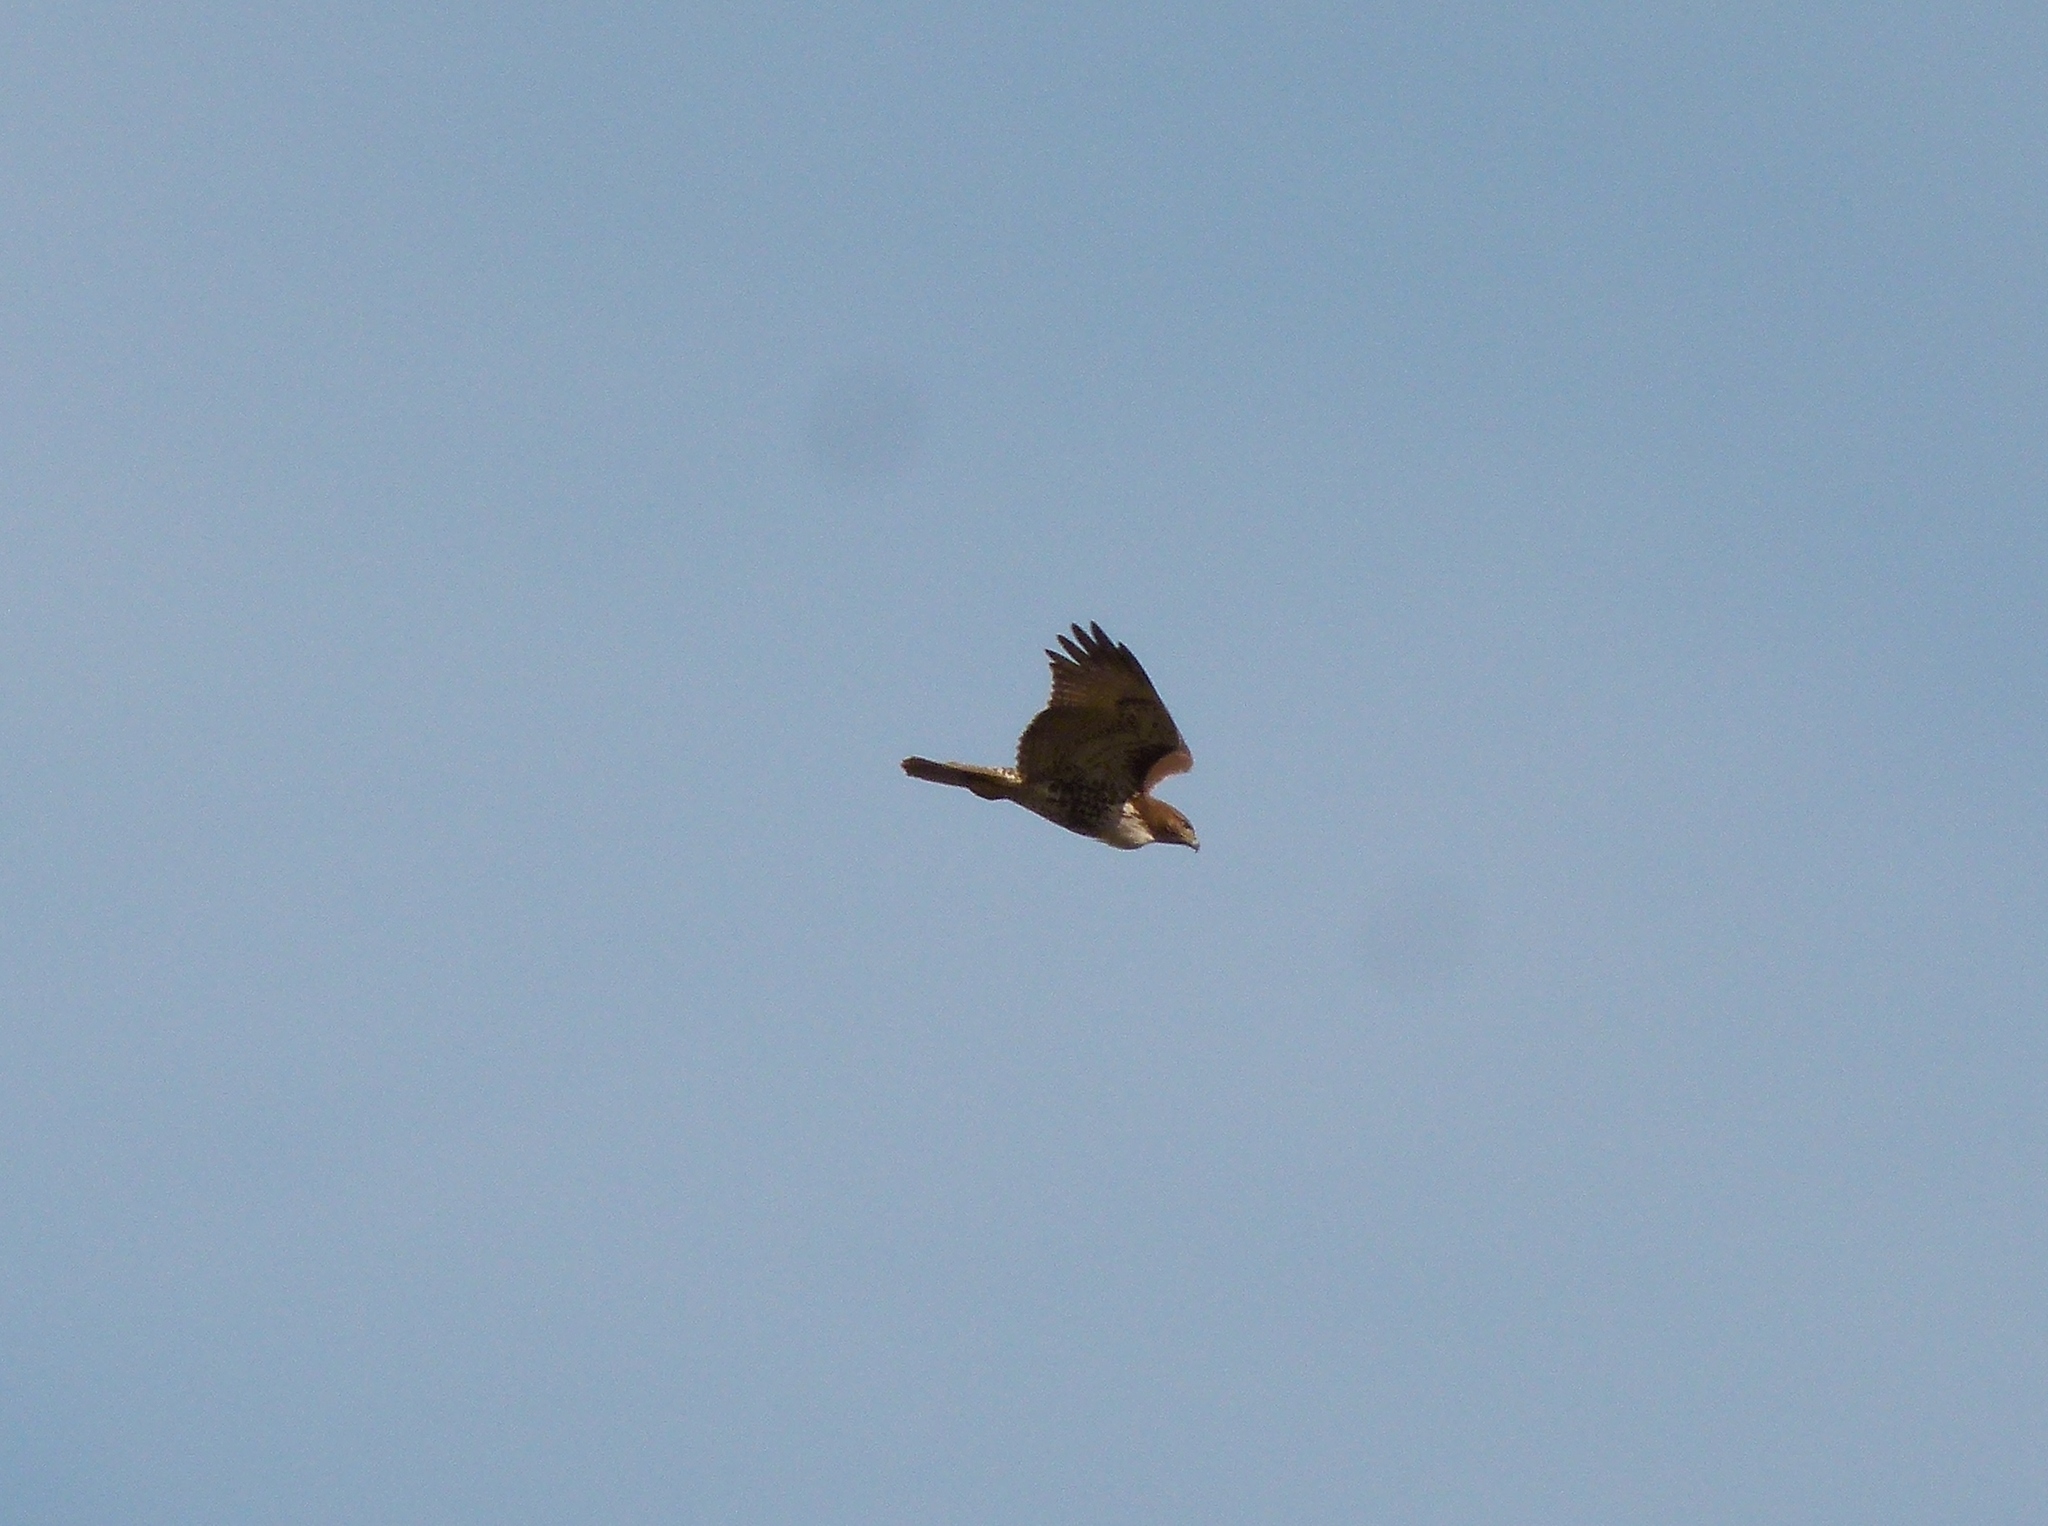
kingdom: Animalia
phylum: Chordata
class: Aves
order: Accipitriformes
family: Accipitridae
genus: Buteo
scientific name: Buteo jamaicensis
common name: Red-tailed hawk
